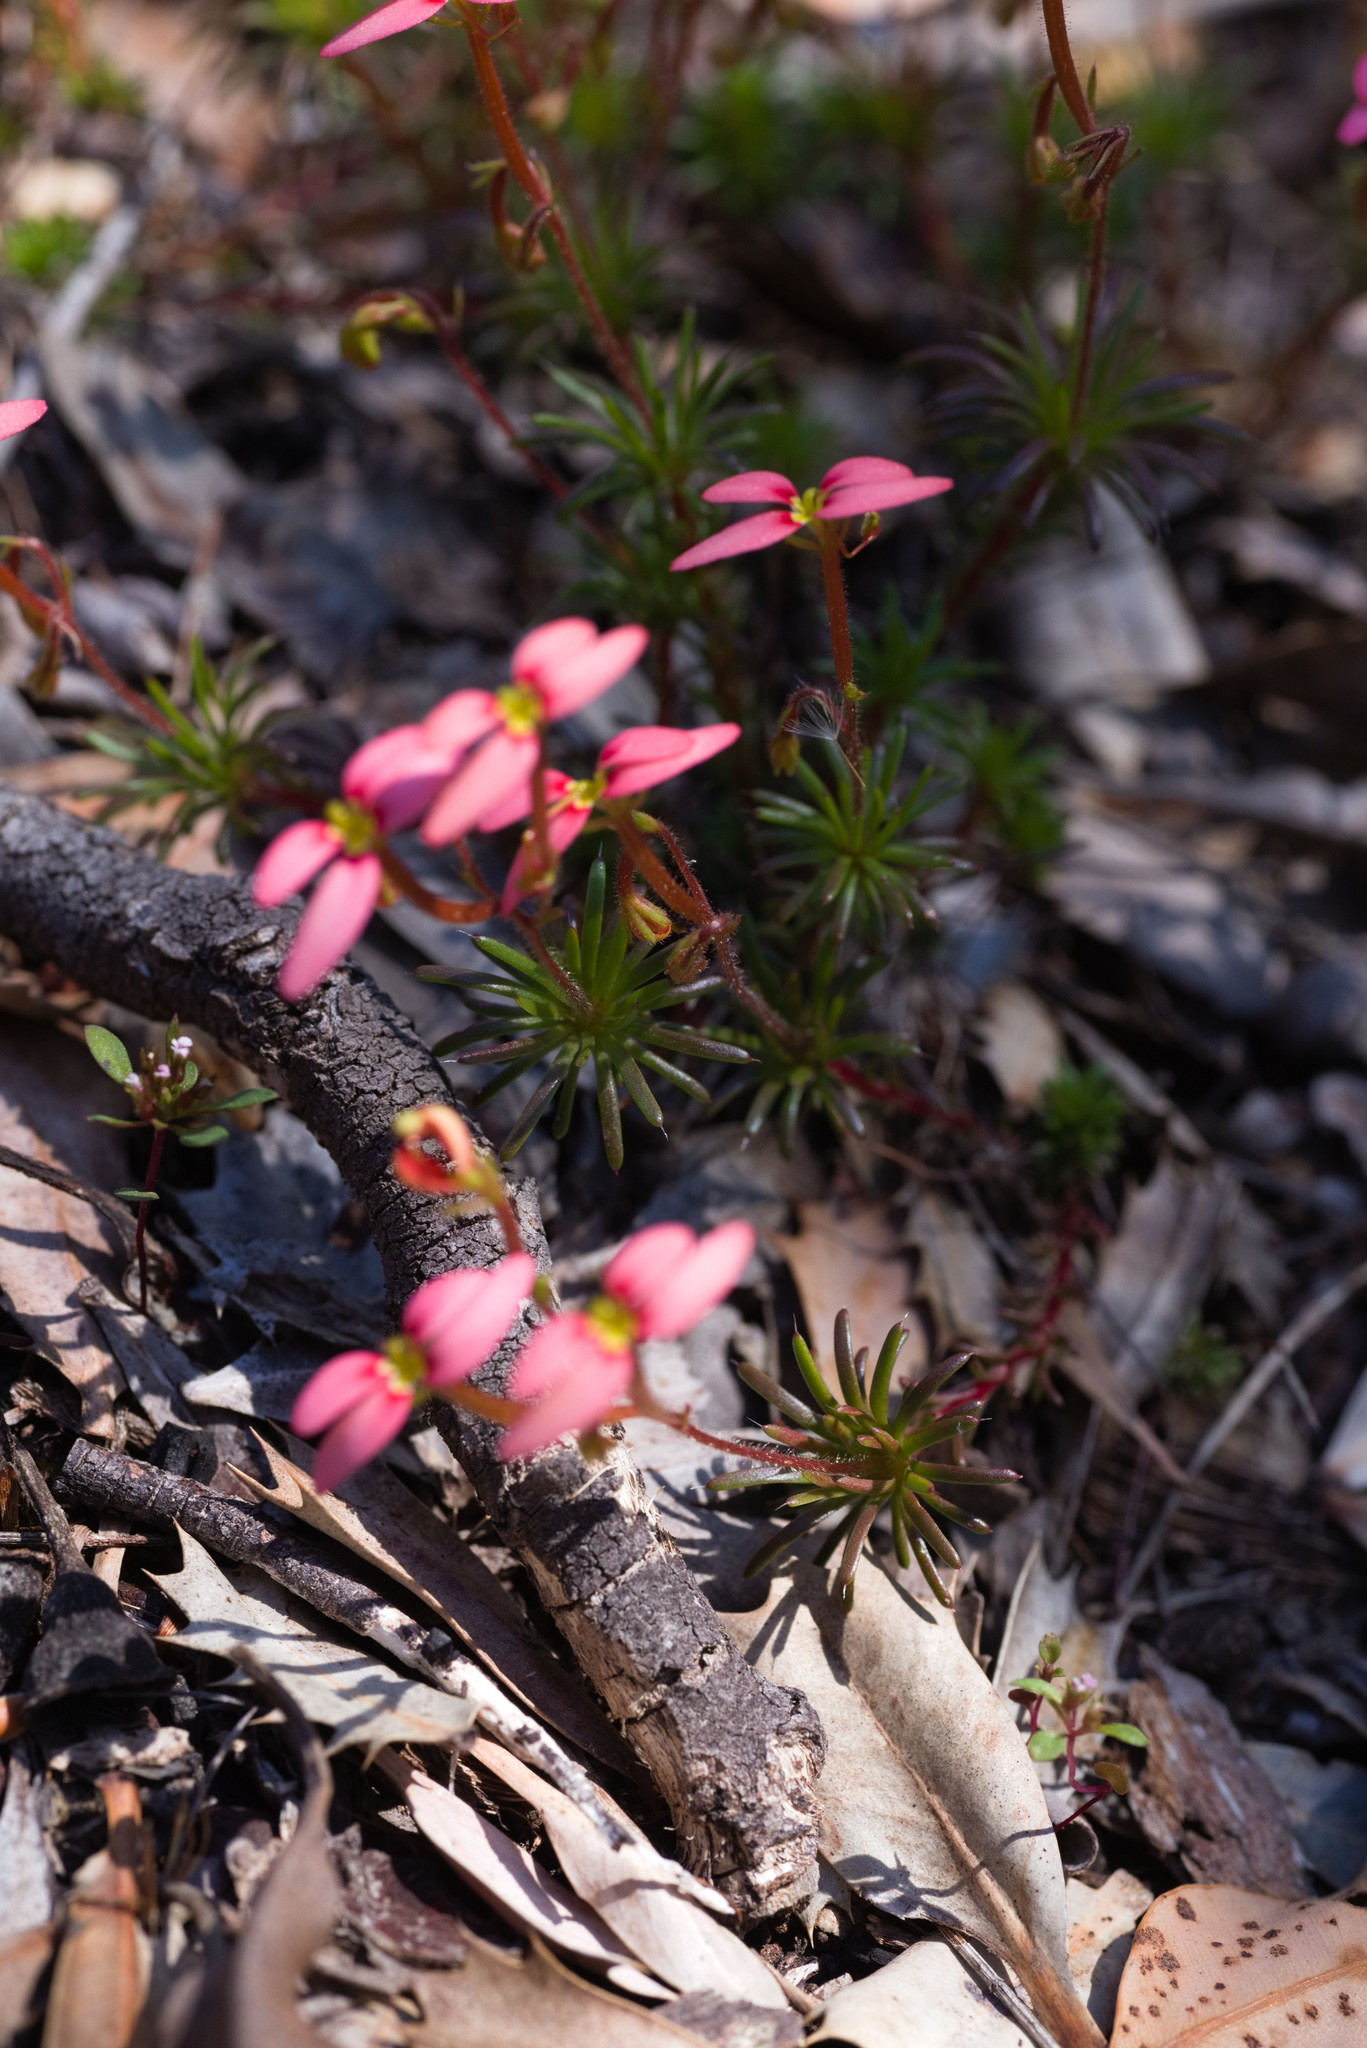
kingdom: Plantae
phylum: Tracheophyta
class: Magnoliopsida
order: Asterales
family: Stylidiaceae
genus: Stylidium
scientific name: Stylidium recurvum
